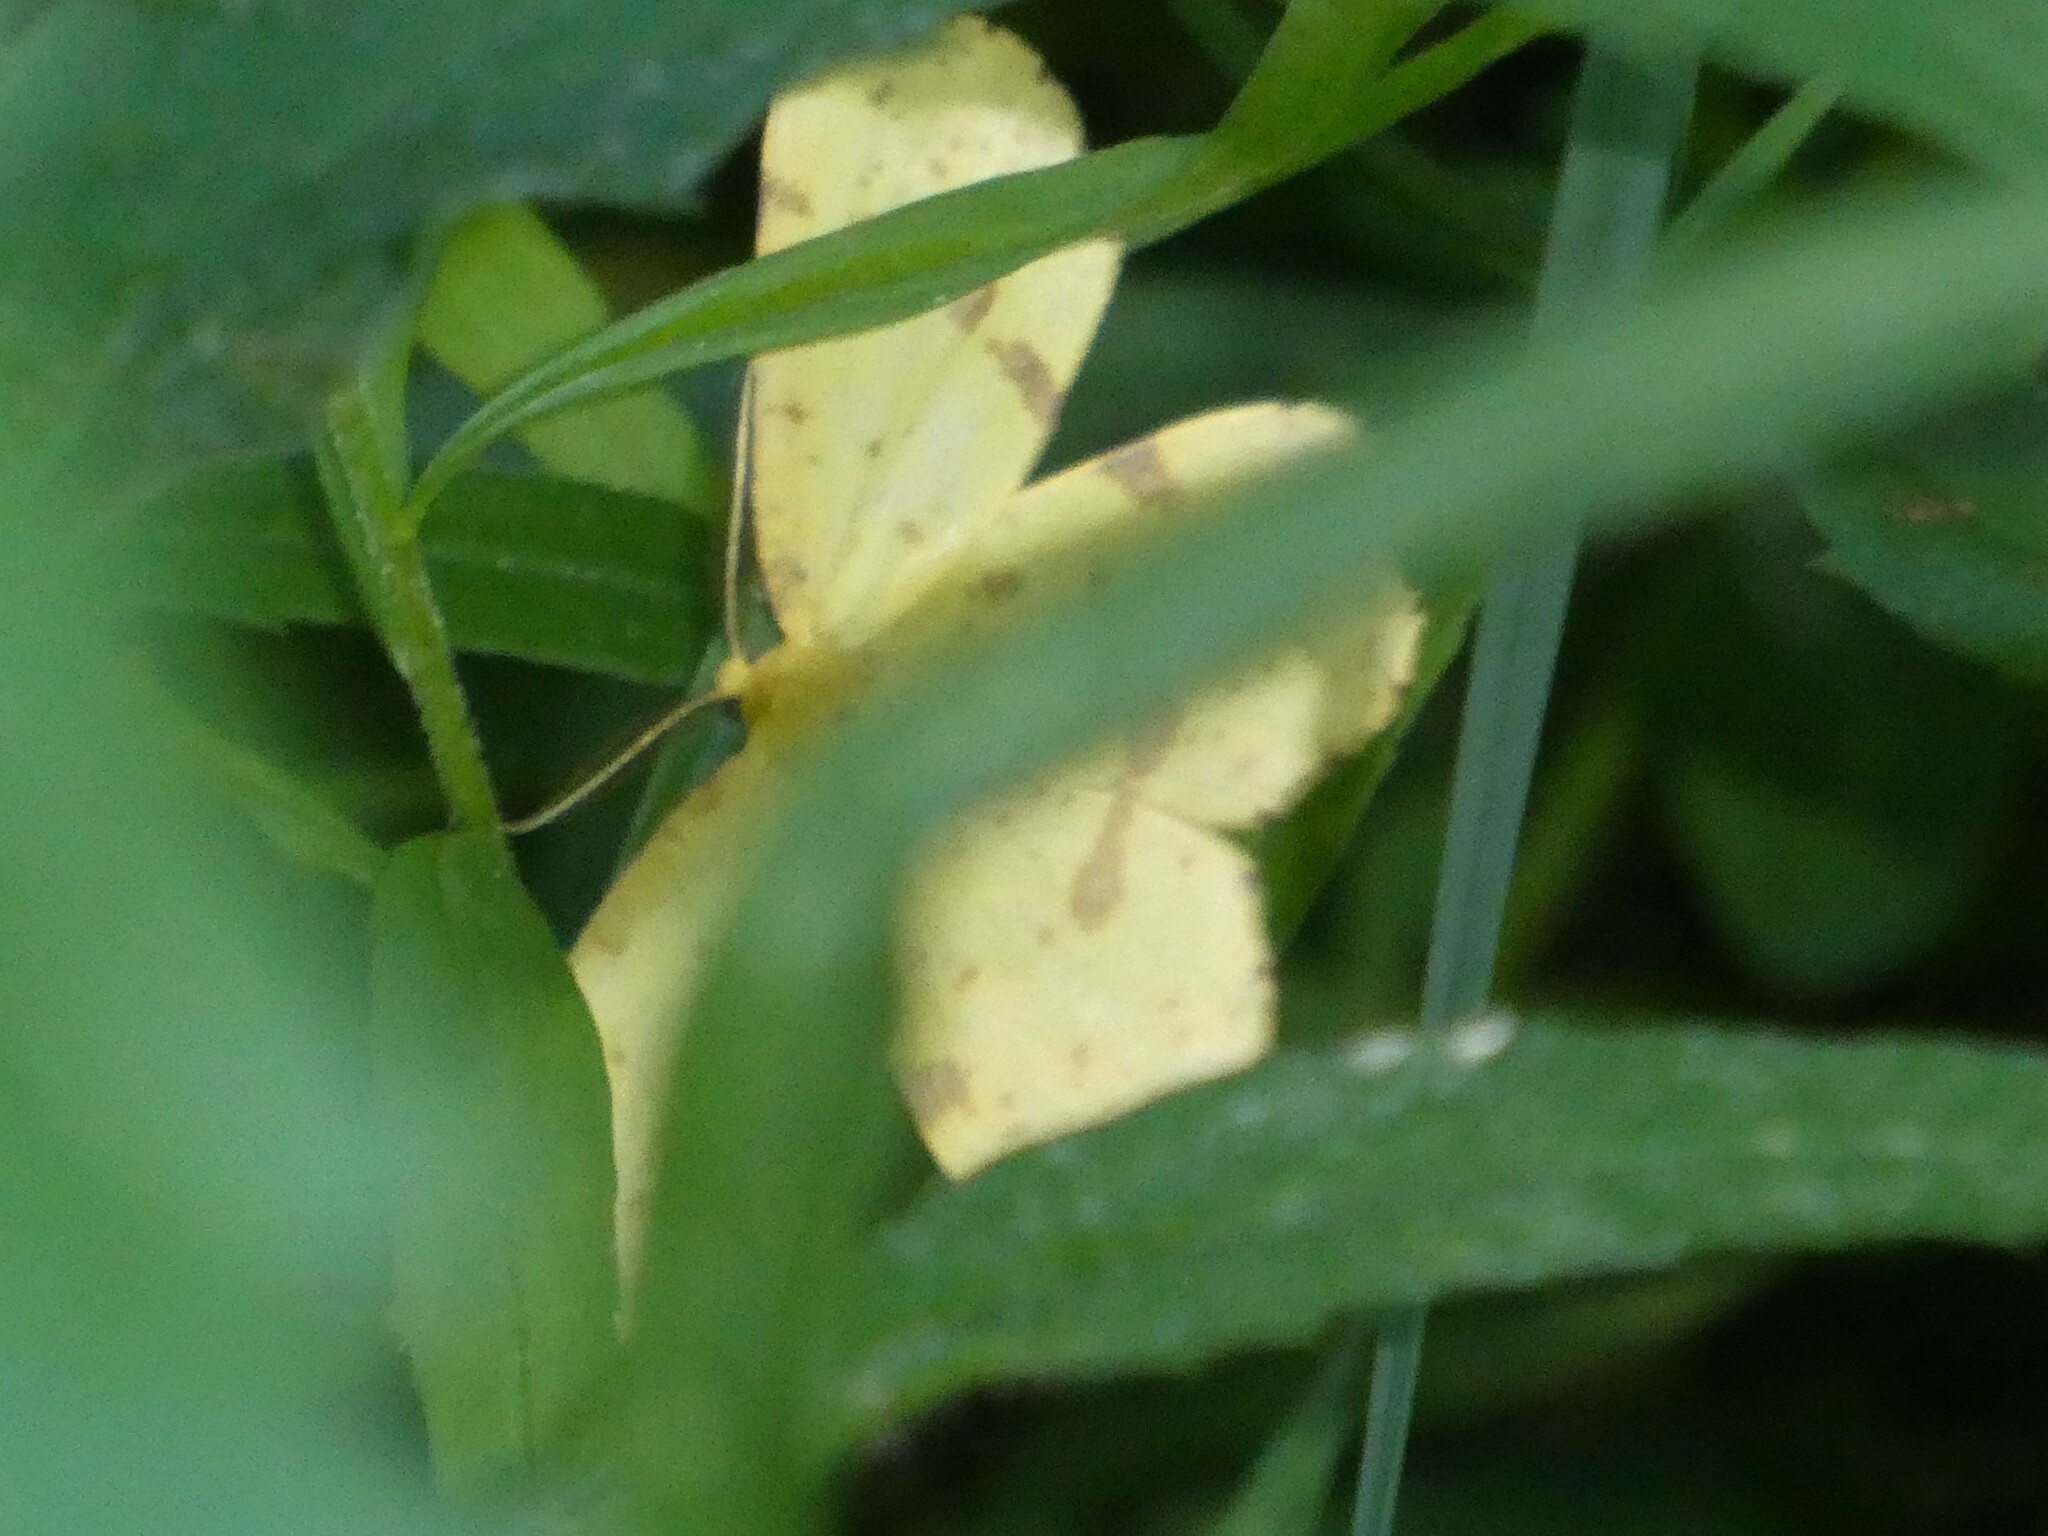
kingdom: Animalia
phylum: Arthropoda
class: Insecta
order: Lepidoptera
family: Geometridae
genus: Xanthotype
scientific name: Xanthotype
